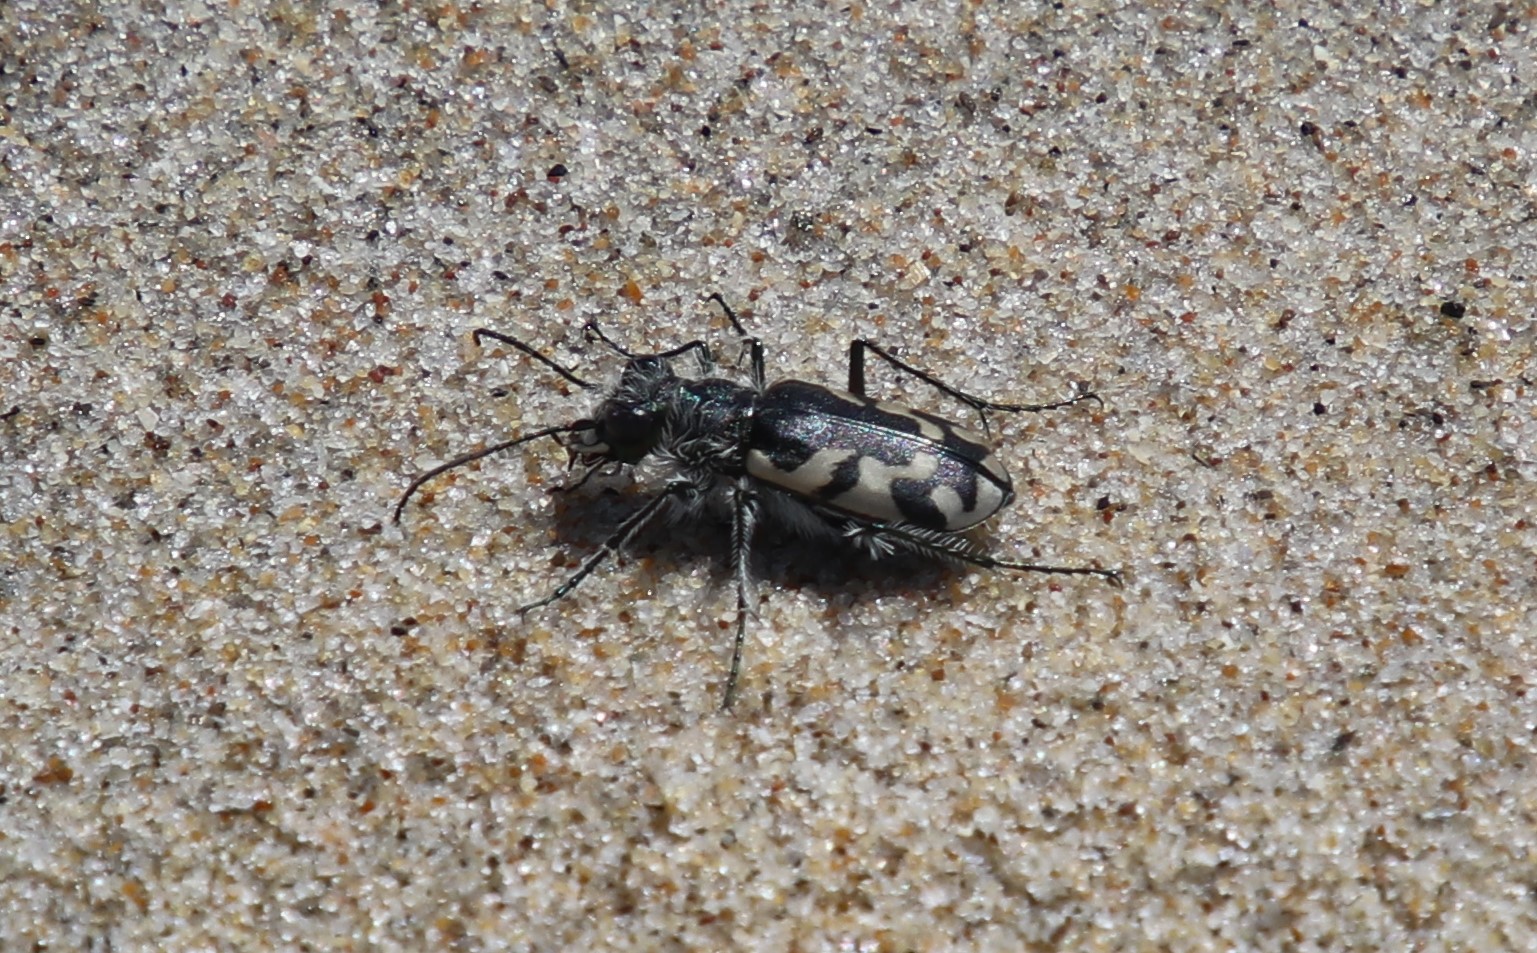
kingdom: Animalia
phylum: Arthropoda
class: Insecta
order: Coleoptera
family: Carabidae
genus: Cicindela
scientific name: Cicindela latesignata
